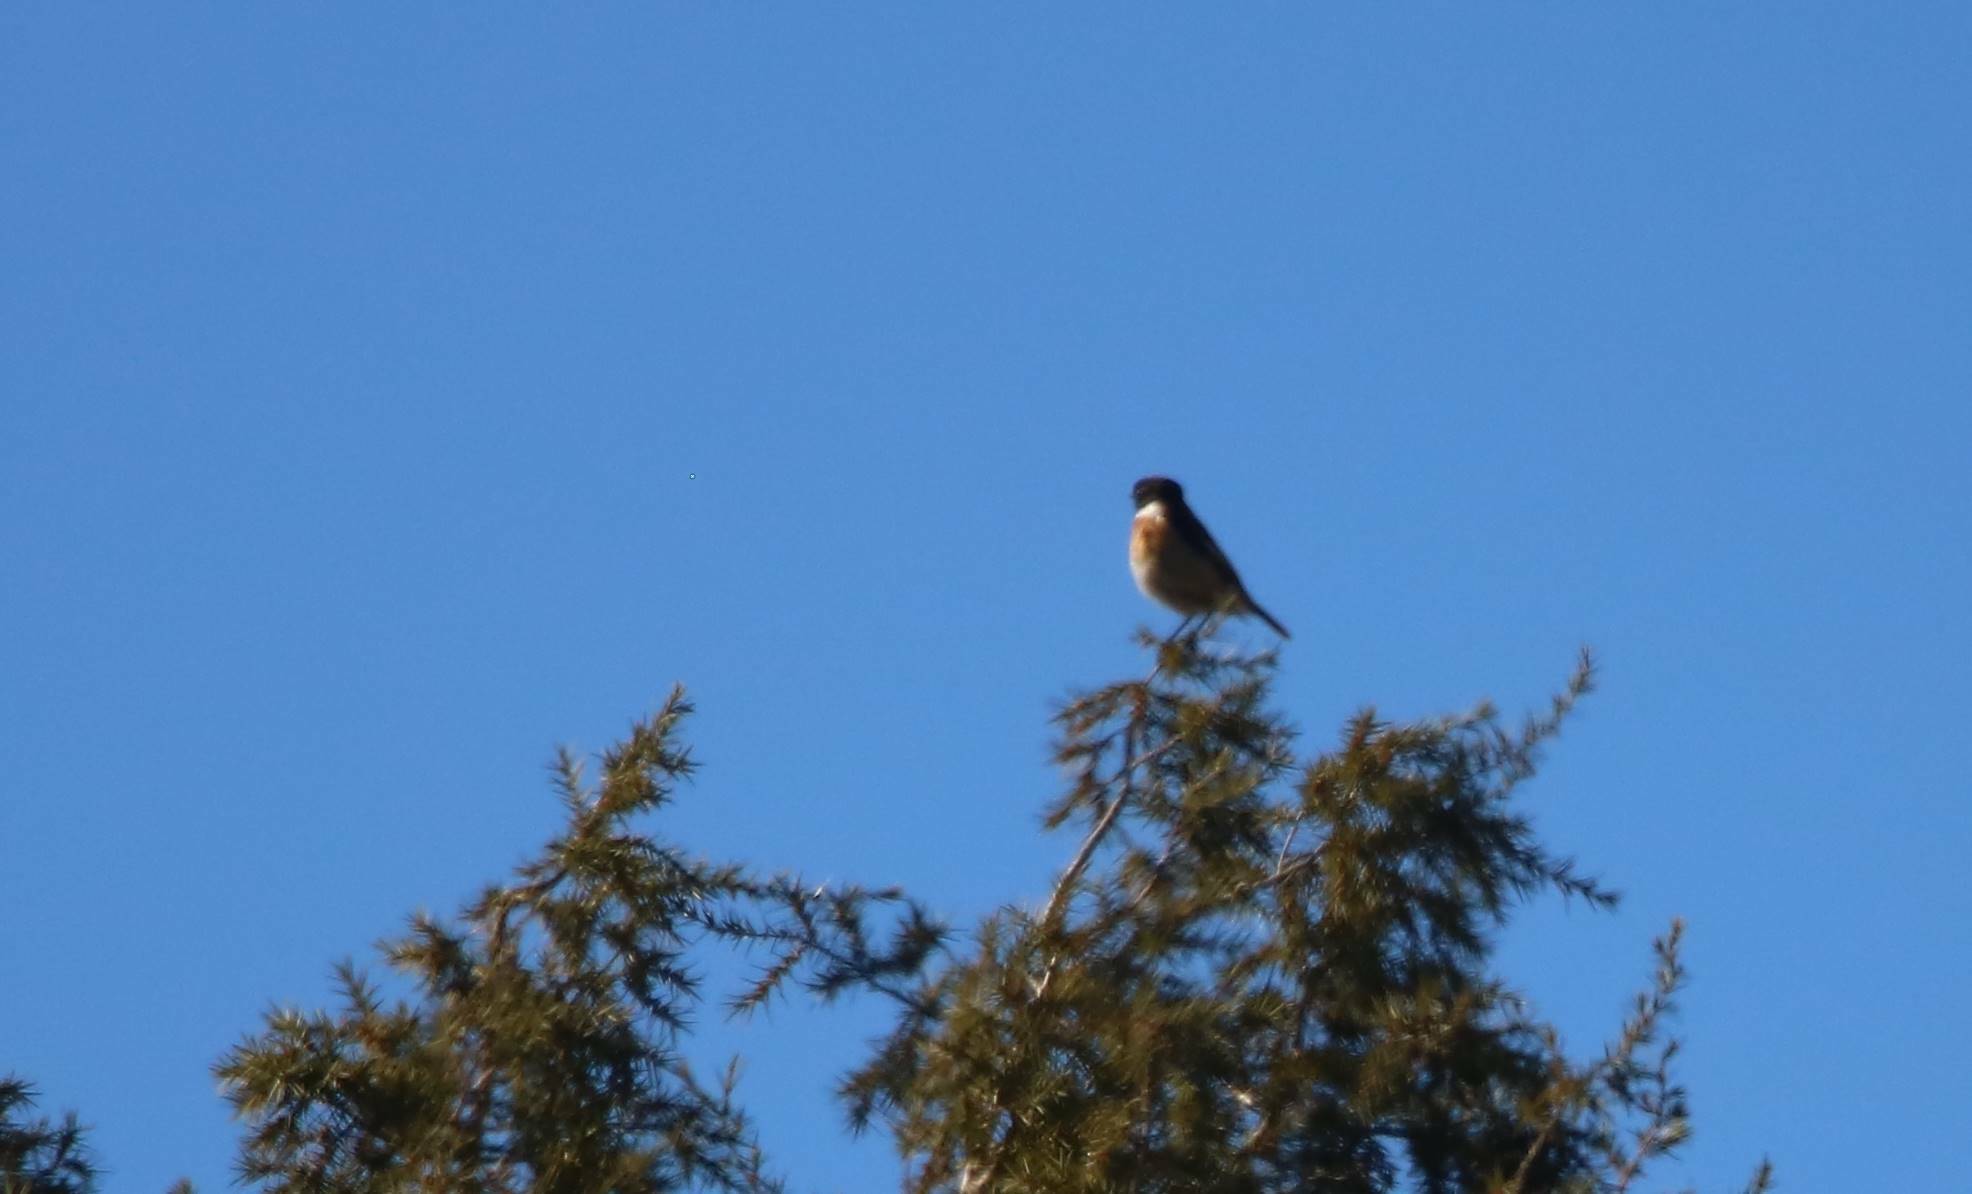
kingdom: Animalia
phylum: Chordata
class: Aves
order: Passeriformes
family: Muscicapidae
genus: Saxicola
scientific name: Saxicola rubicola
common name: European stonechat
